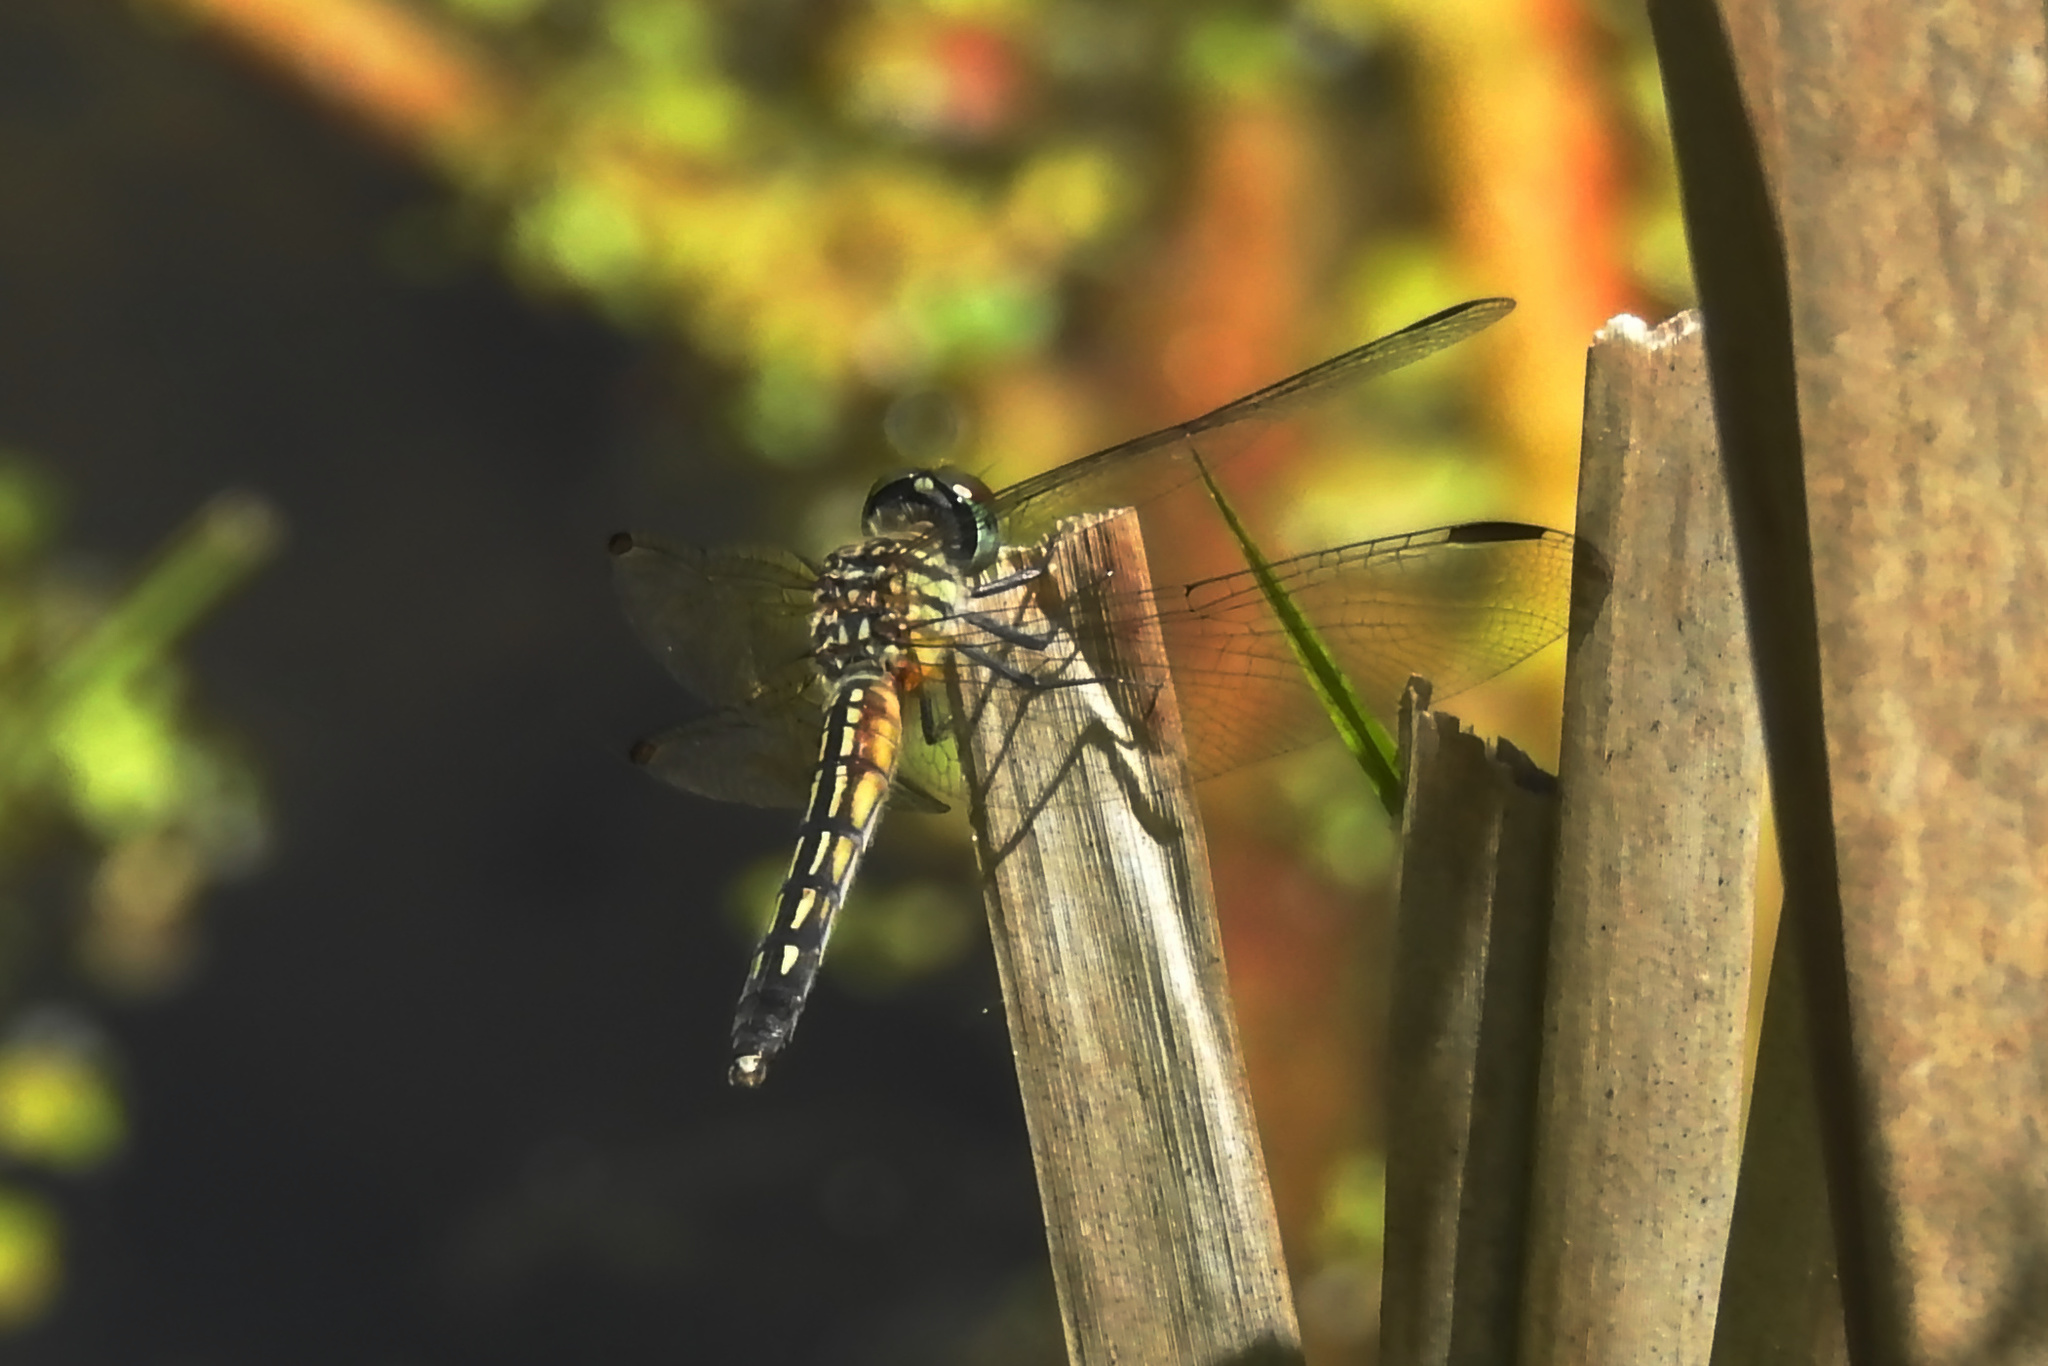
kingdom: Animalia
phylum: Arthropoda
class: Insecta
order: Odonata
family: Libellulidae
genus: Pachydiplax
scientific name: Pachydiplax longipennis
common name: Blue dasher
